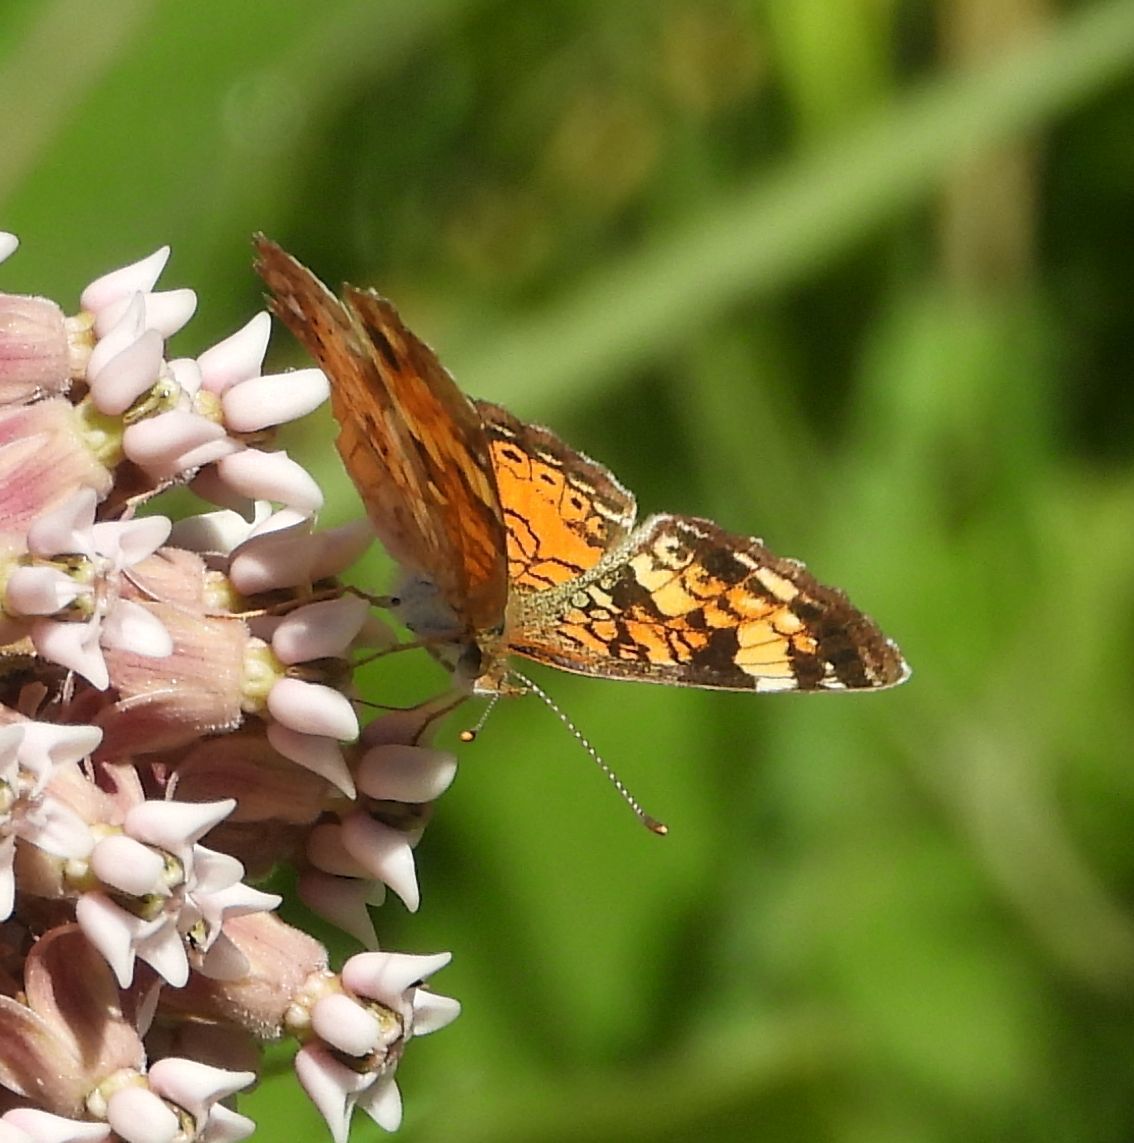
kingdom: Animalia
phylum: Arthropoda
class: Insecta
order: Lepidoptera
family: Nymphalidae
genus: Phyciodes
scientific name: Phyciodes tharos
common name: Pearl crescent
